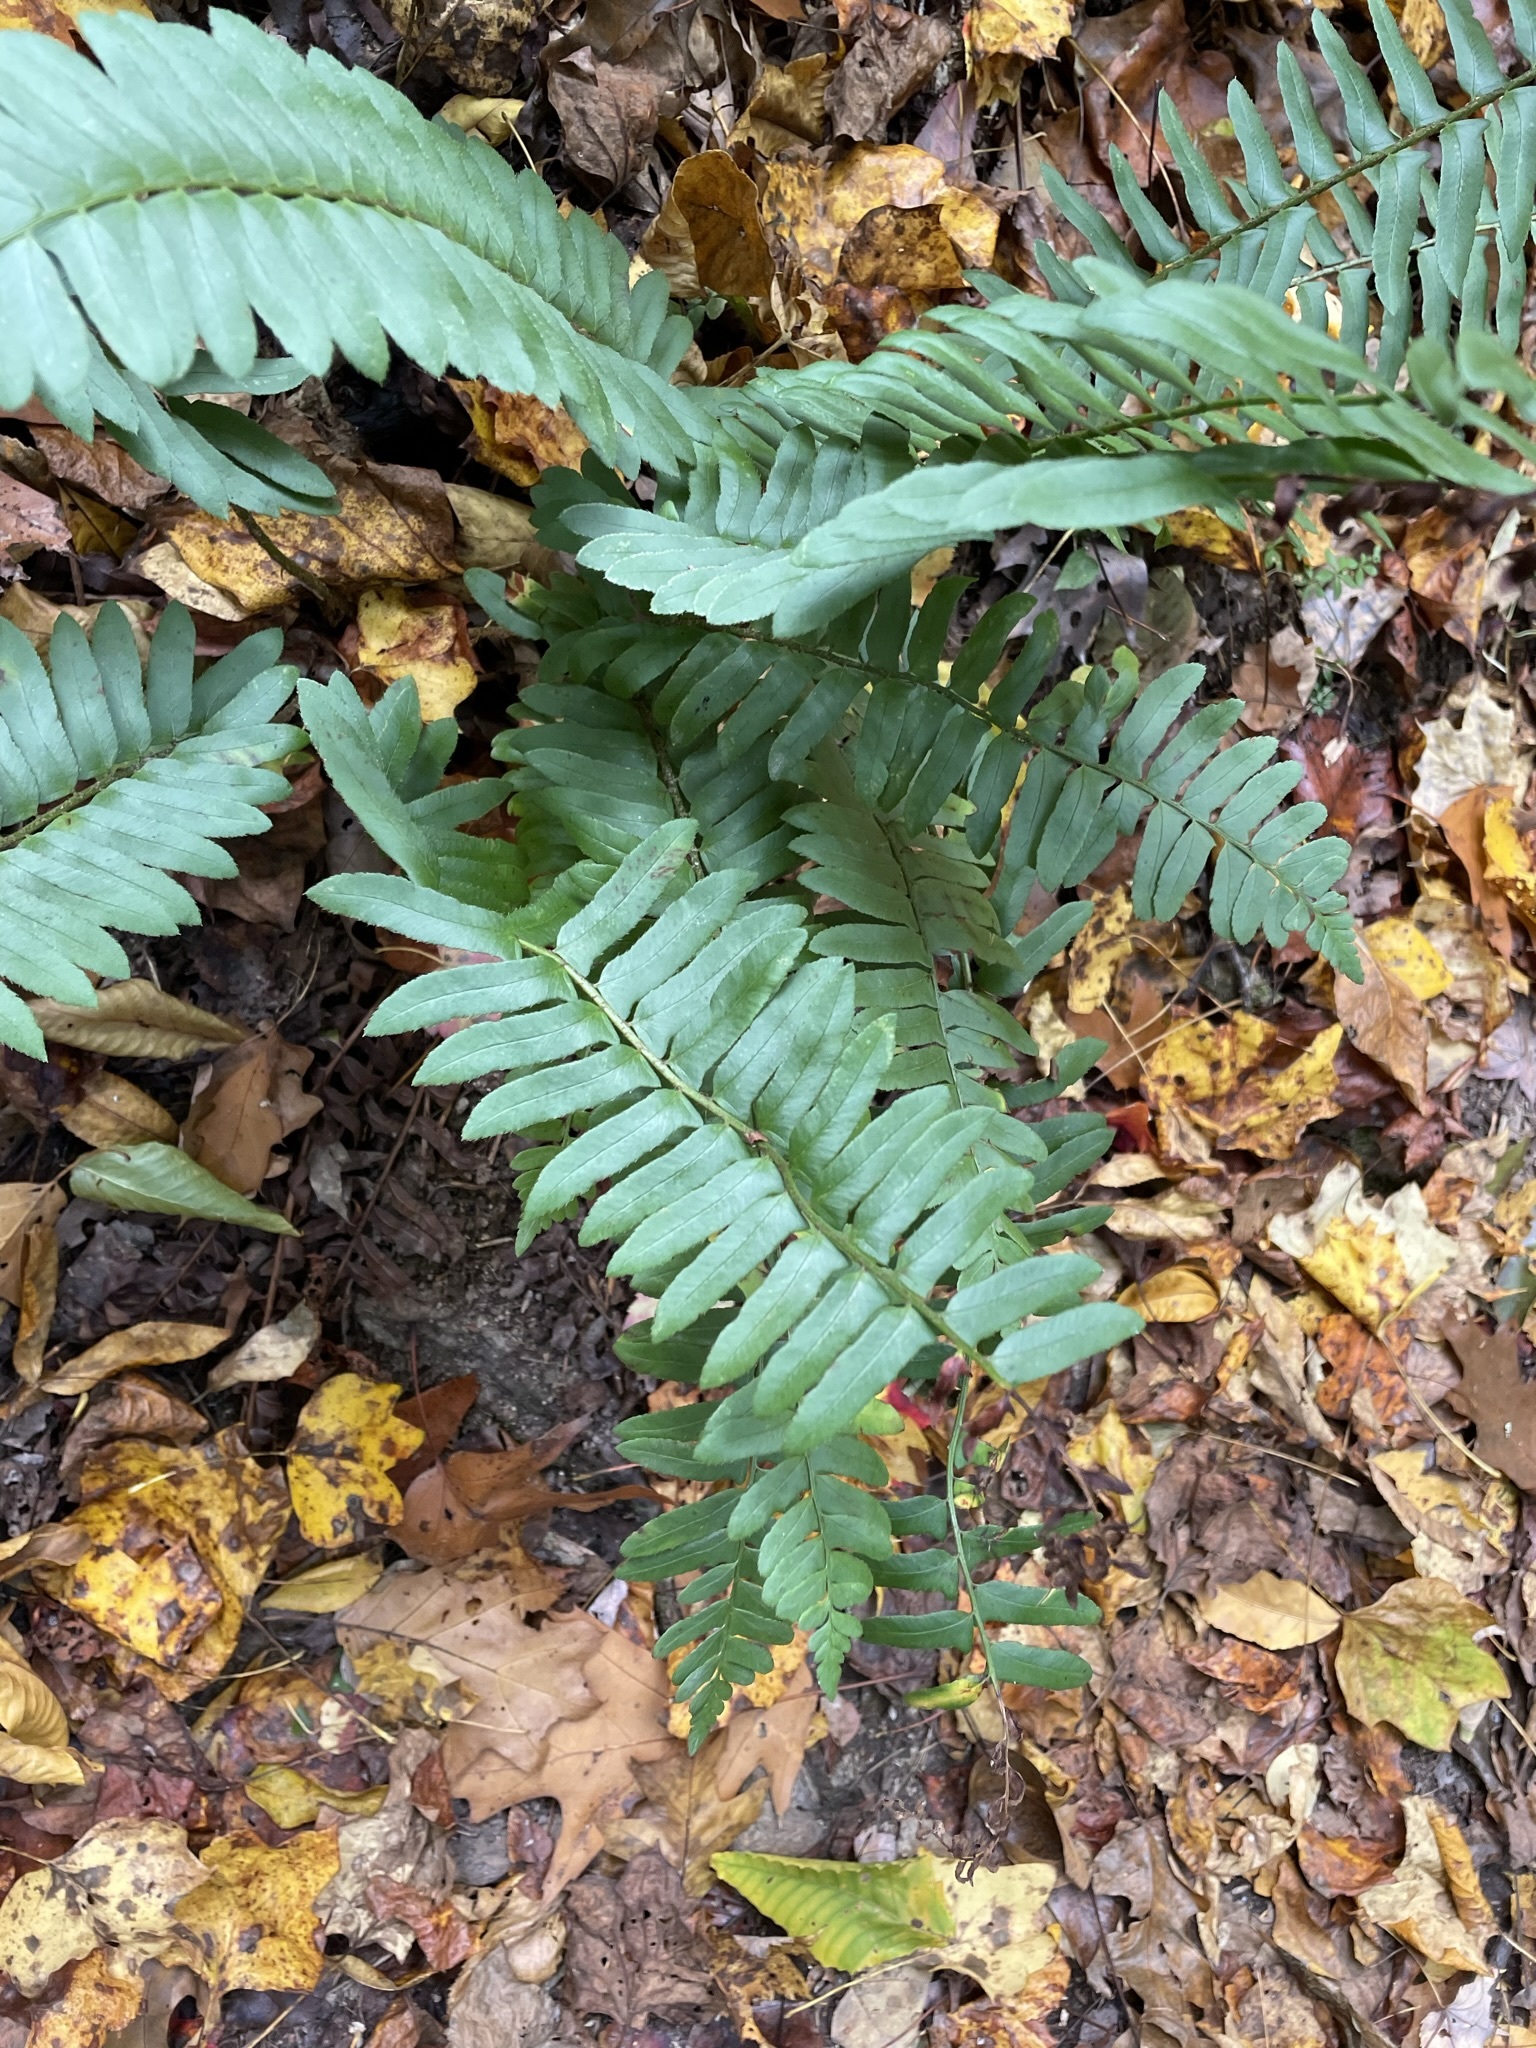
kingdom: Plantae
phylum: Tracheophyta
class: Polypodiopsida
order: Polypodiales
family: Dryopteridaceae
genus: Polystichum
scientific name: Polystichum acrostichoides
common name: Christmas fern
